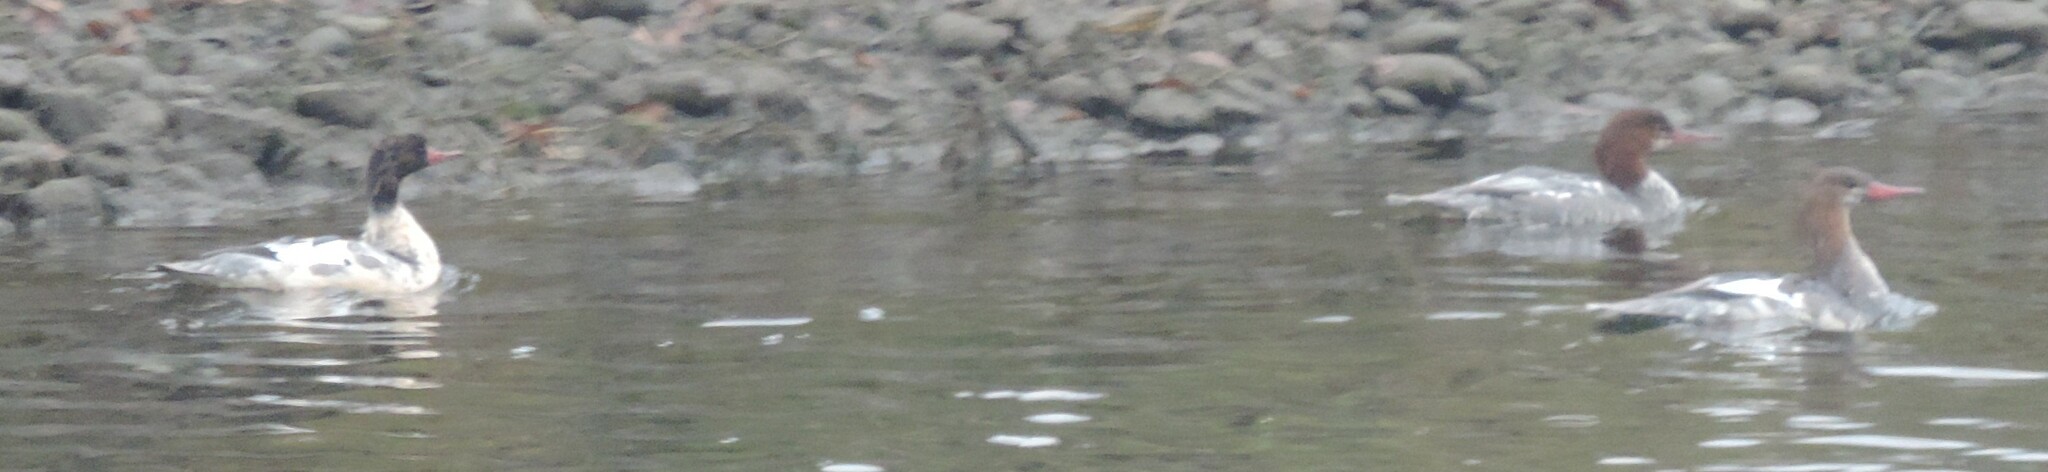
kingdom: Animalia
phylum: Chordata
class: Aves
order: Anseriformes
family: Anatidae
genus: Mergus
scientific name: Mergus merganser
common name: Common merganser
